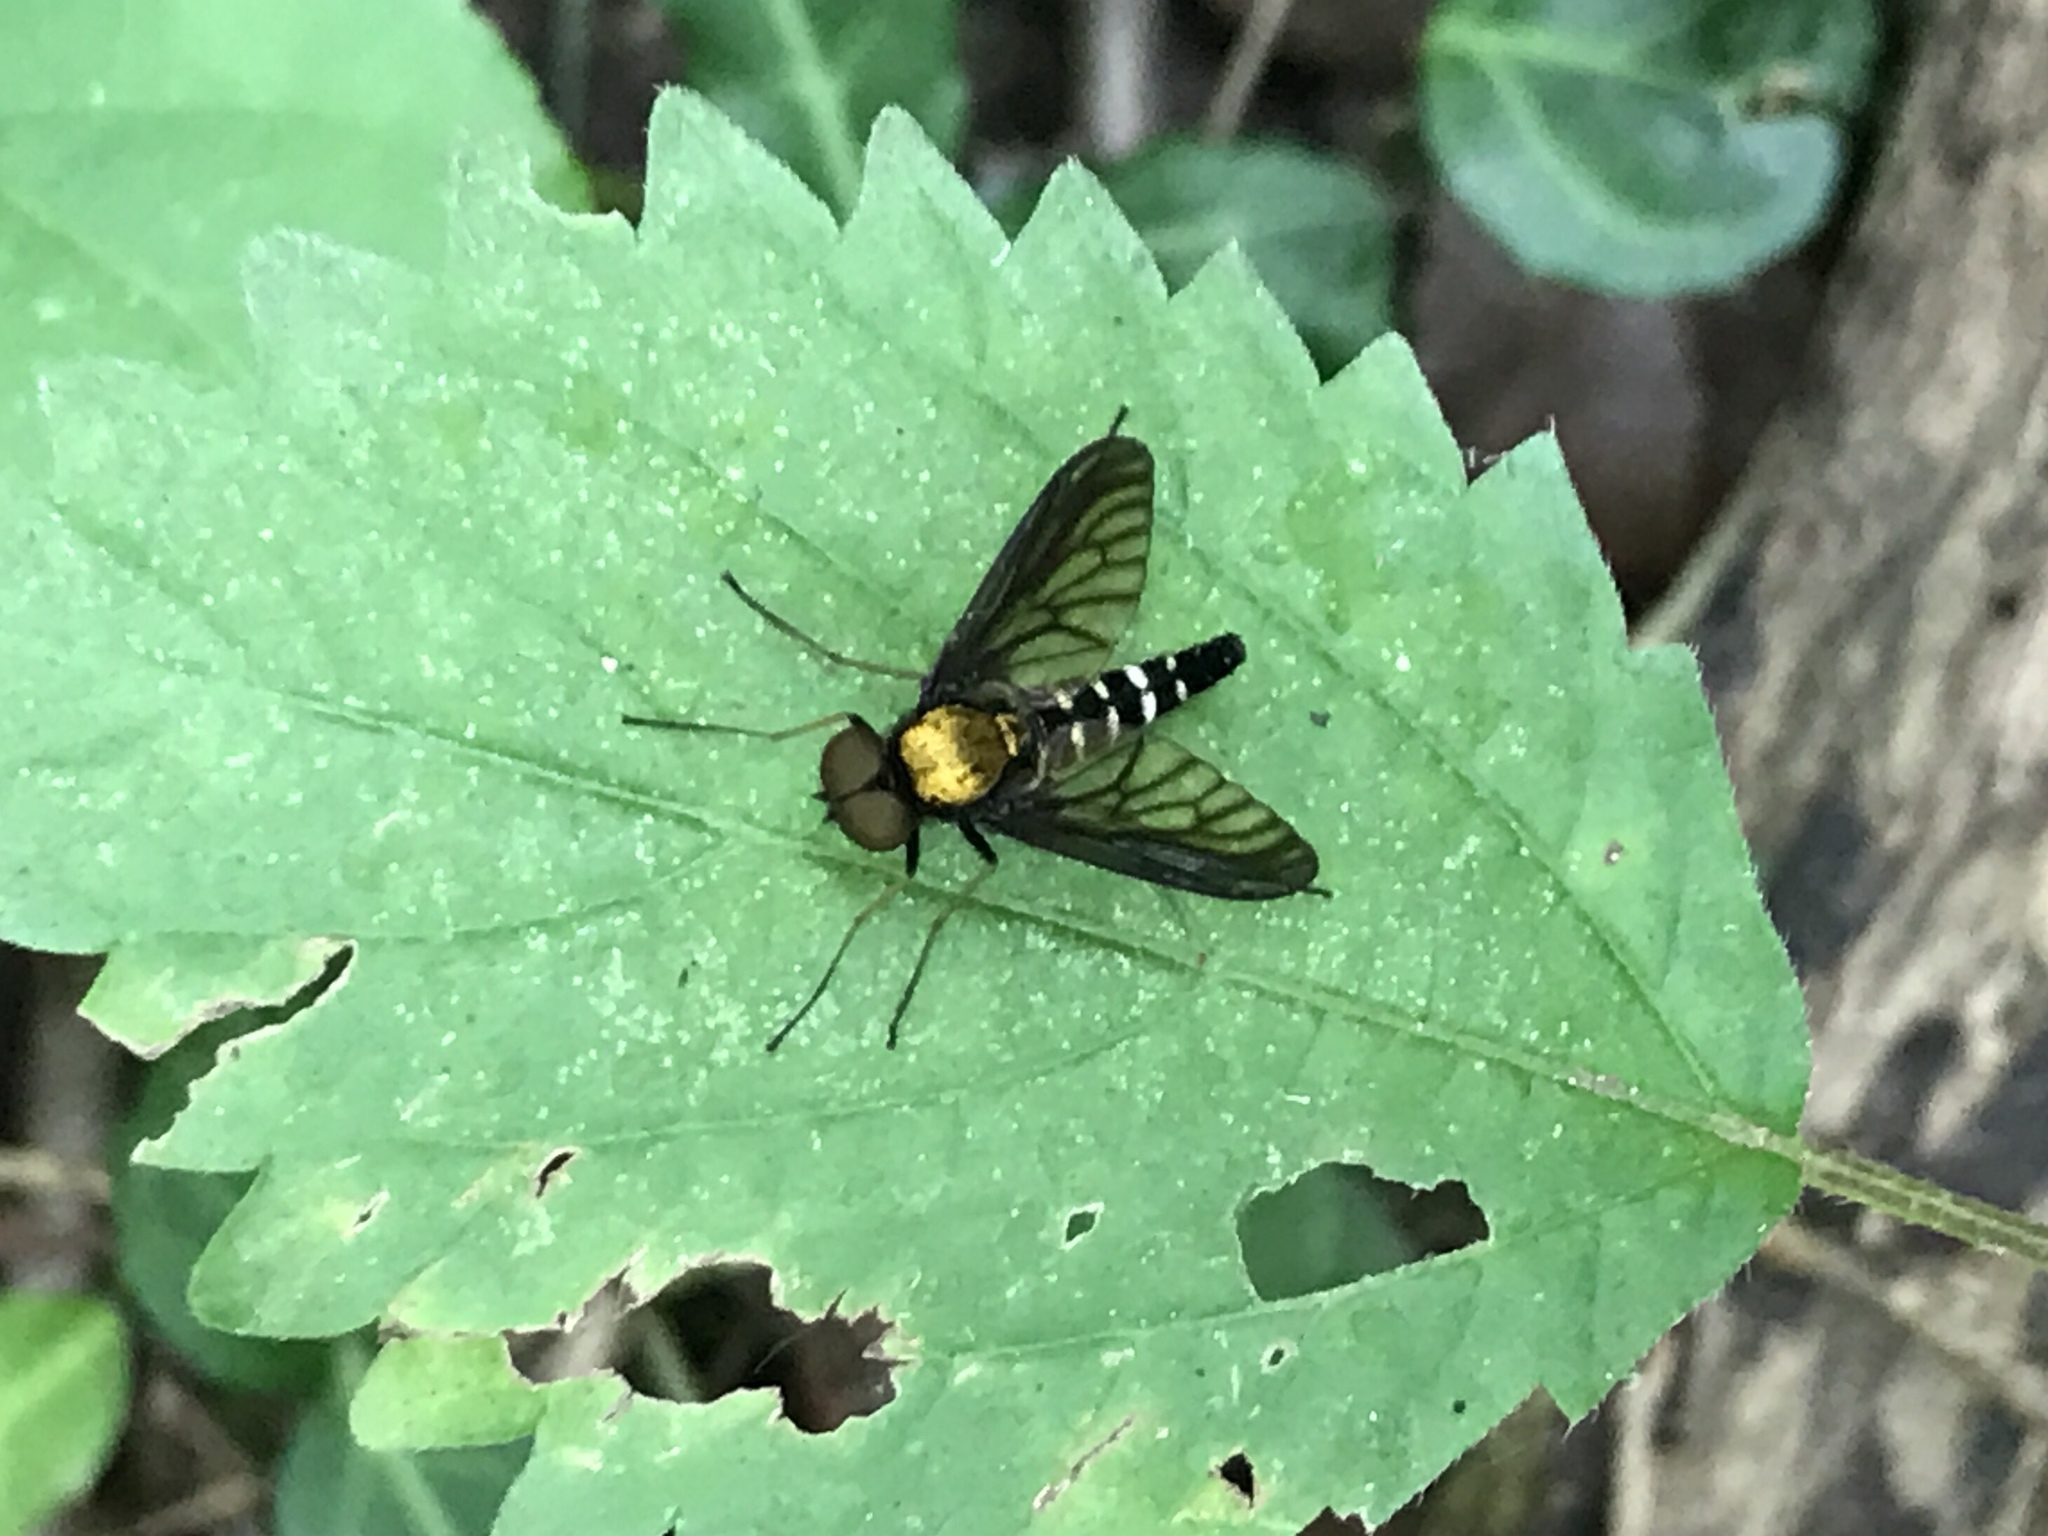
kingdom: Animalia
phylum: Arthropoda
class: Insecta
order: Diptera
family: Rhagionidae
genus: Chrysopilus
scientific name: Chrysopilus thoracicus
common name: Golden-backed snipe fly
